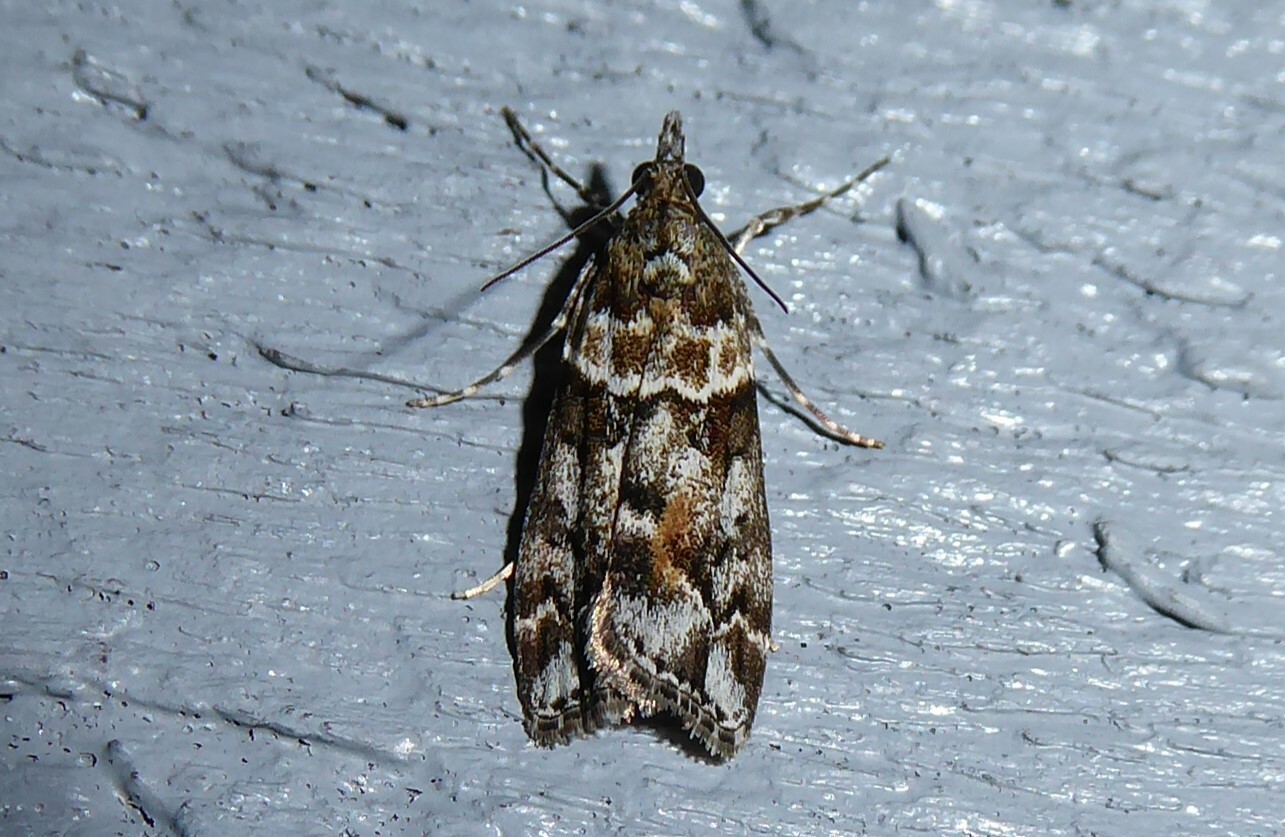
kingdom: Animalia
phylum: Arthropoda
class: Insecta
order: Lepidoptera
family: Crambidae
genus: Eudonia
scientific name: Eudonia submarginalis
